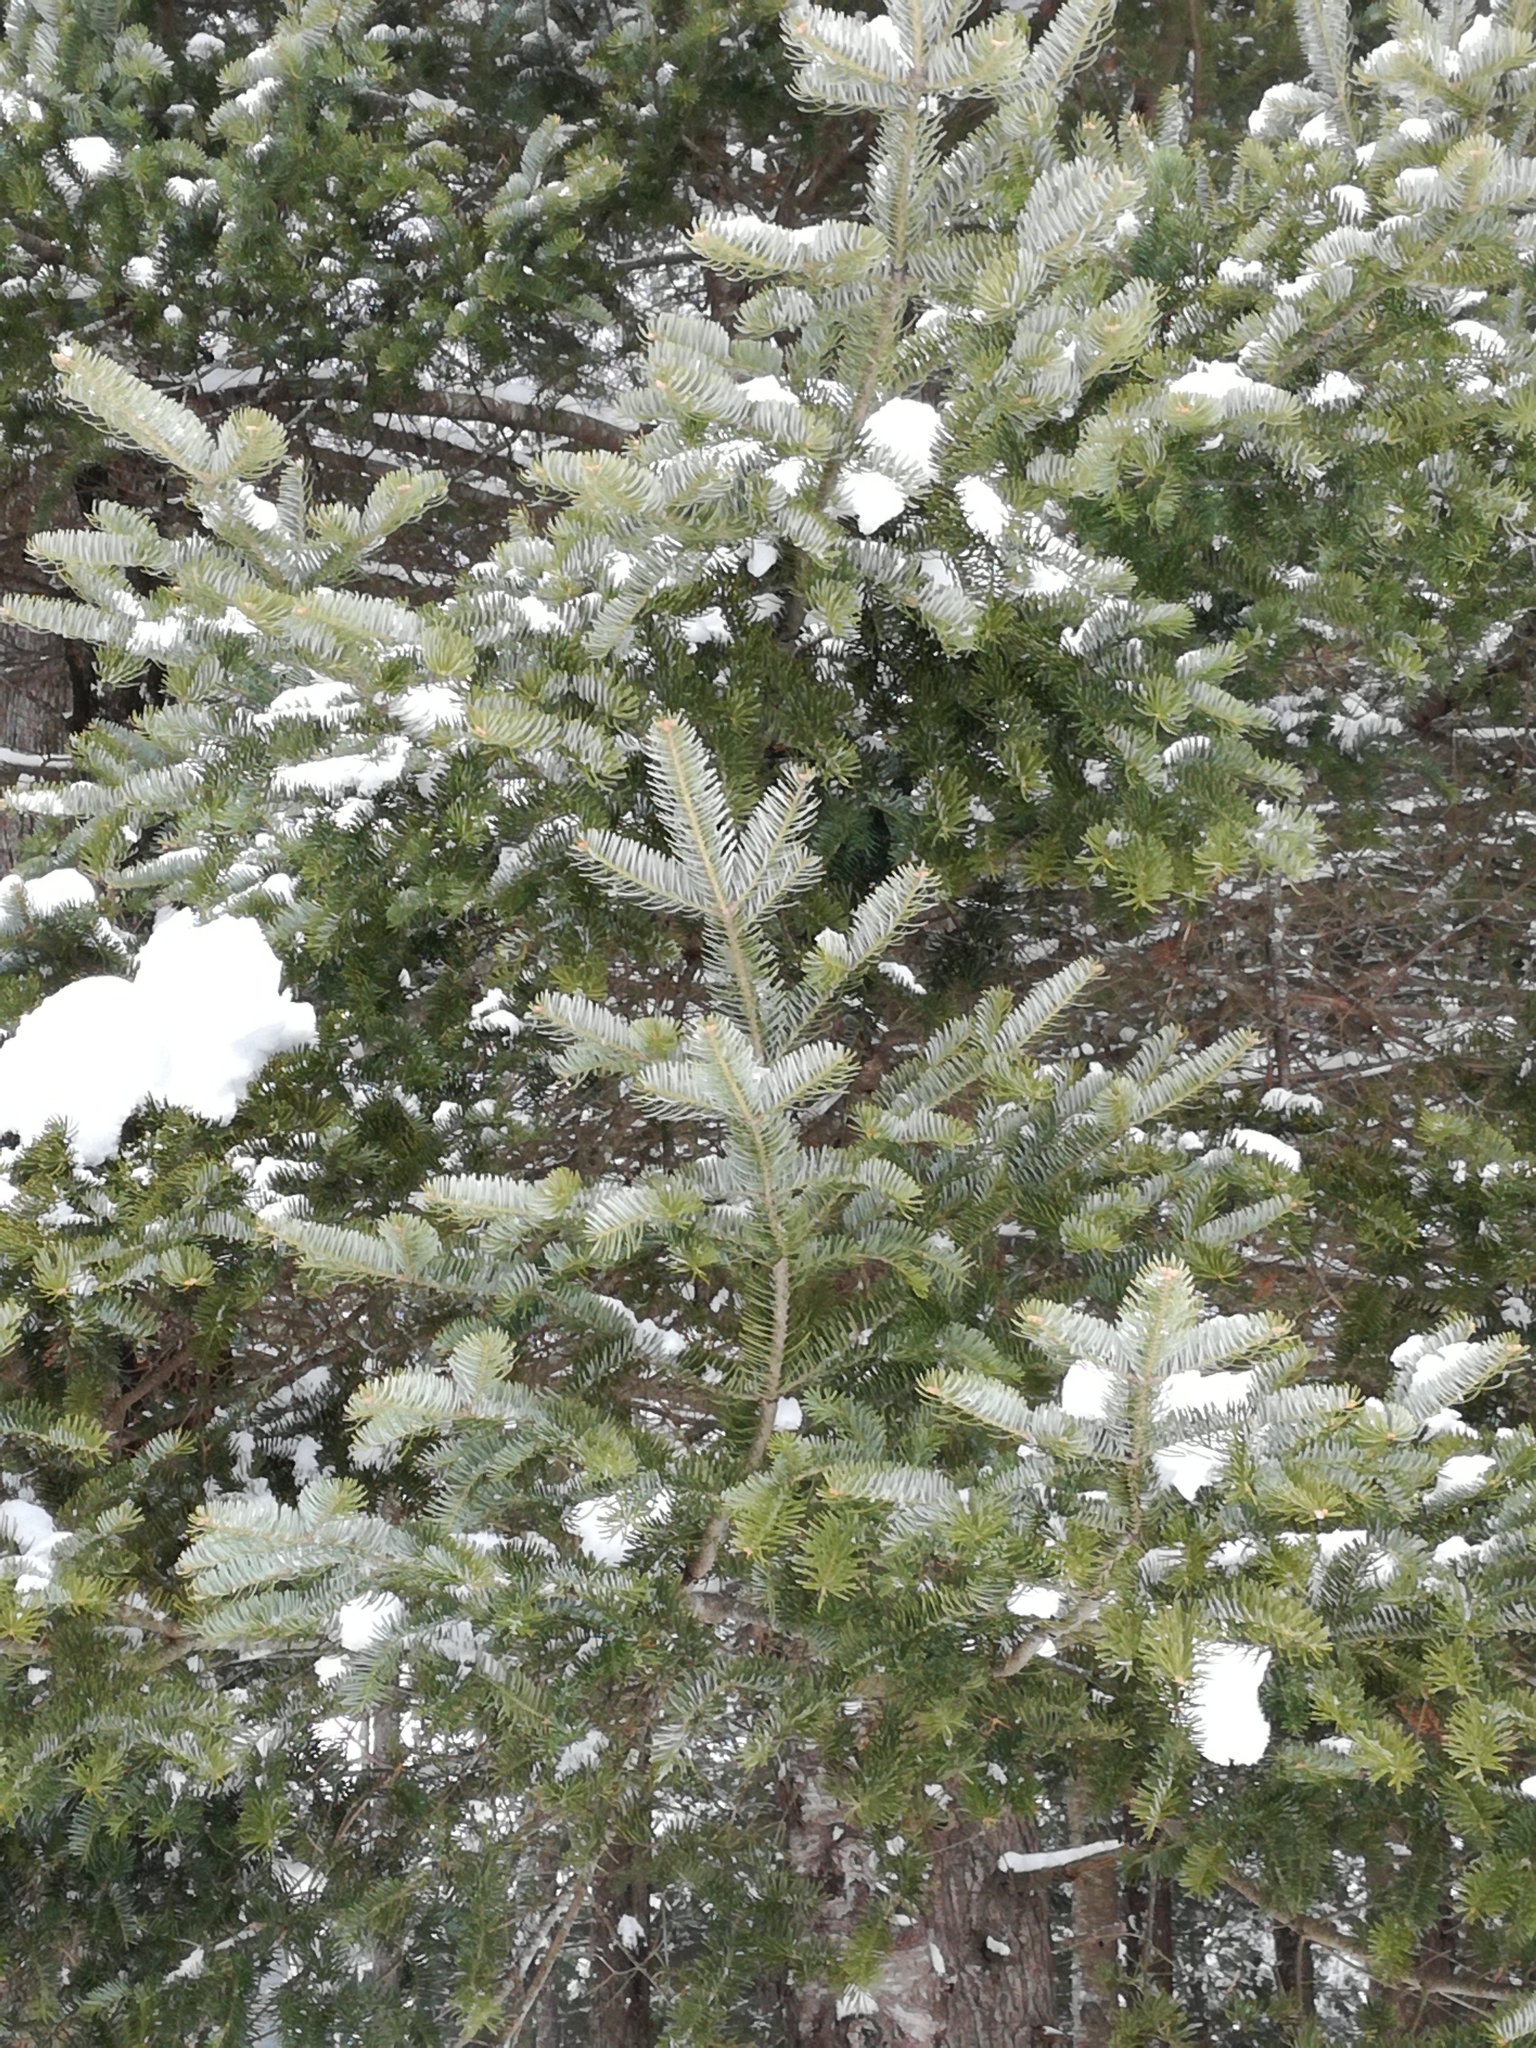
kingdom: Plantae
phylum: Tracheophyta
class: Pinopsida
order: Pinales
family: Pinaceae
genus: Abies
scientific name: Abies balsamea
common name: Balsam fir
